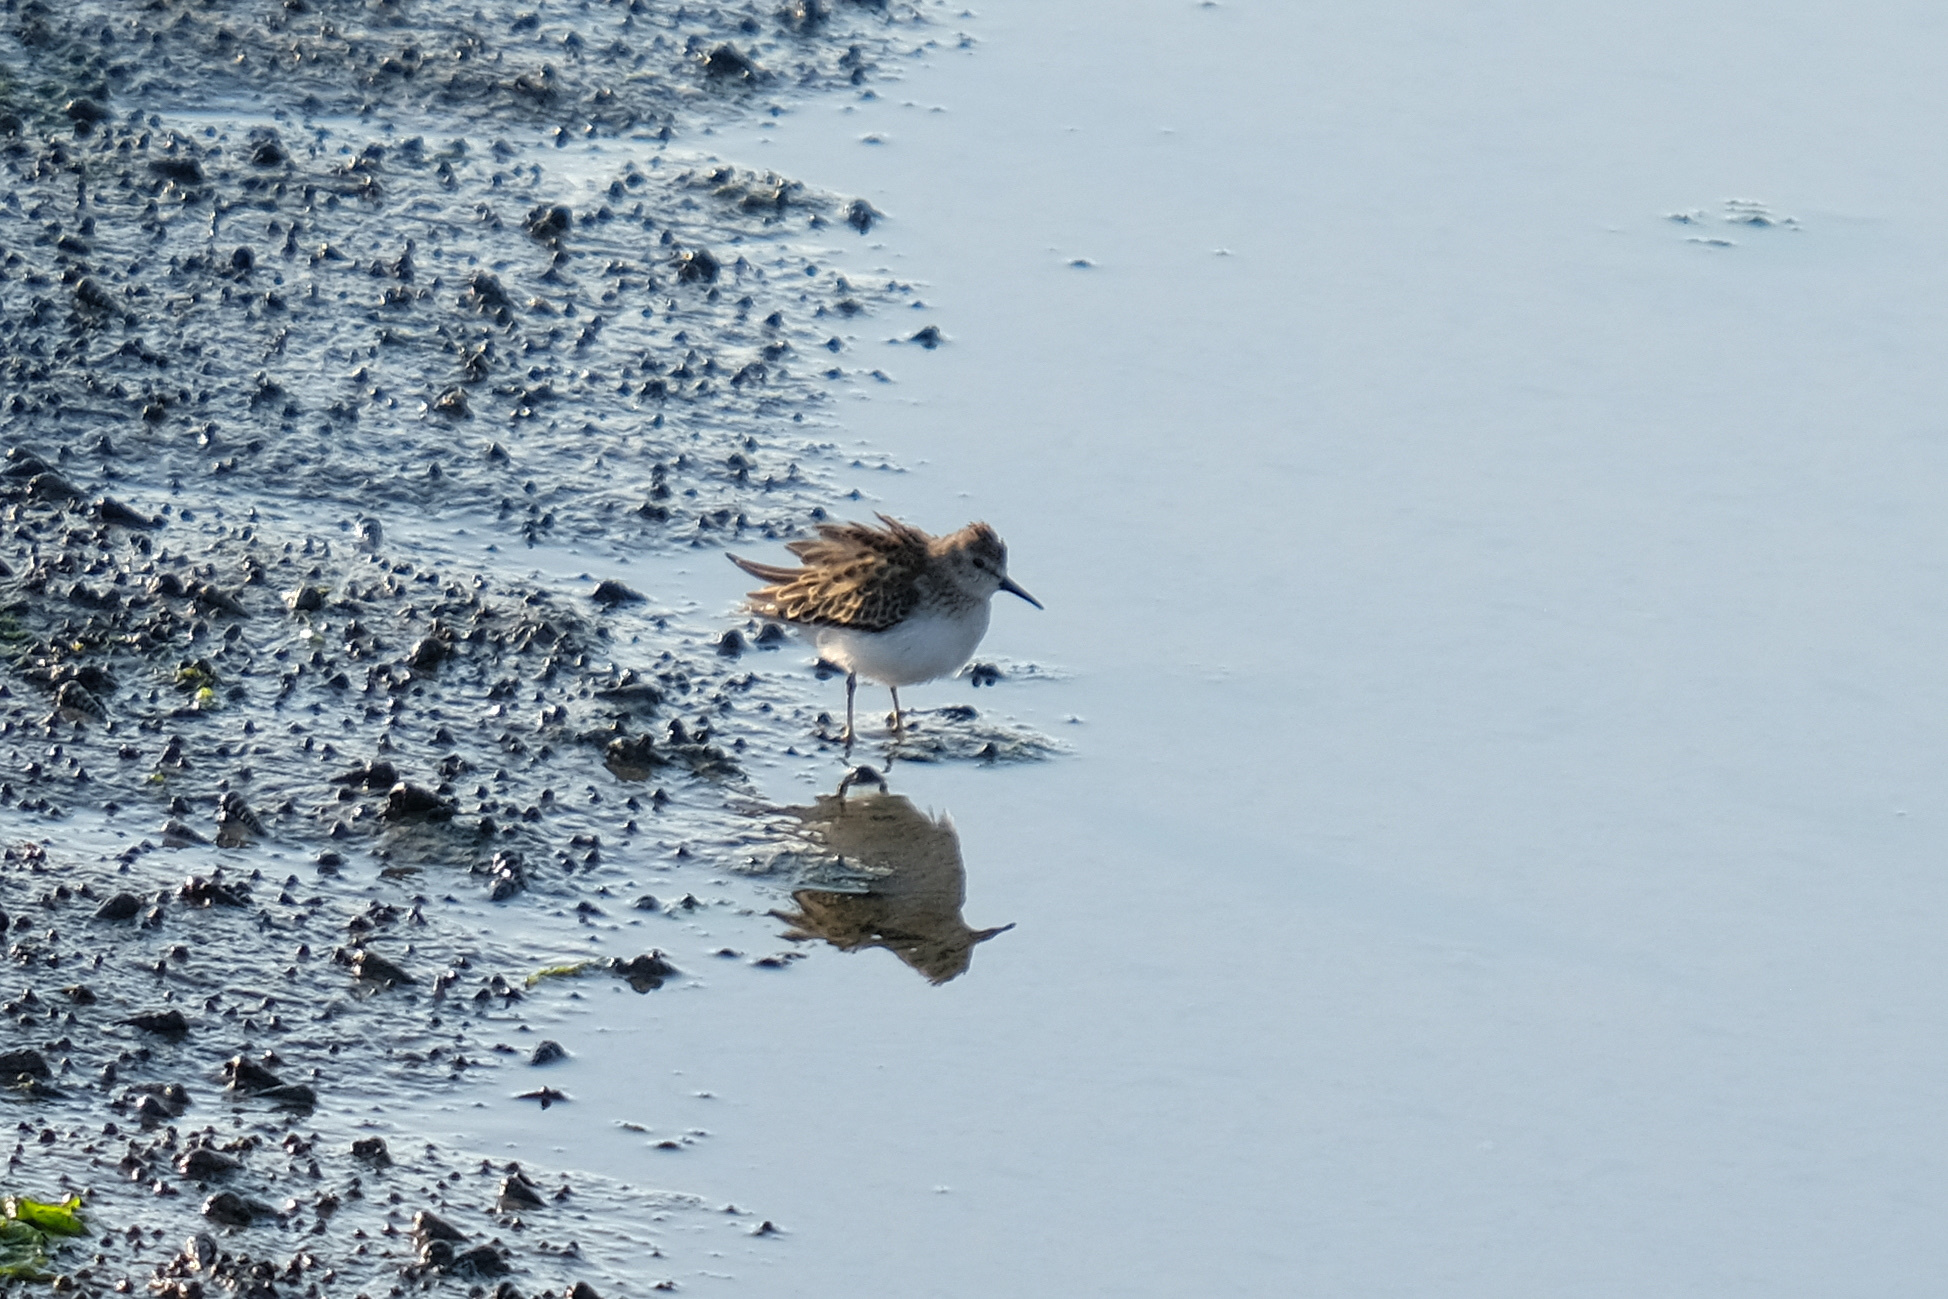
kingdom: Animalia
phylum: Chordata
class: Aves
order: Charadriiformes
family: Scolopacidae
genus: Calidris
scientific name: Calidris minutilla
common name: Least sandpiper
